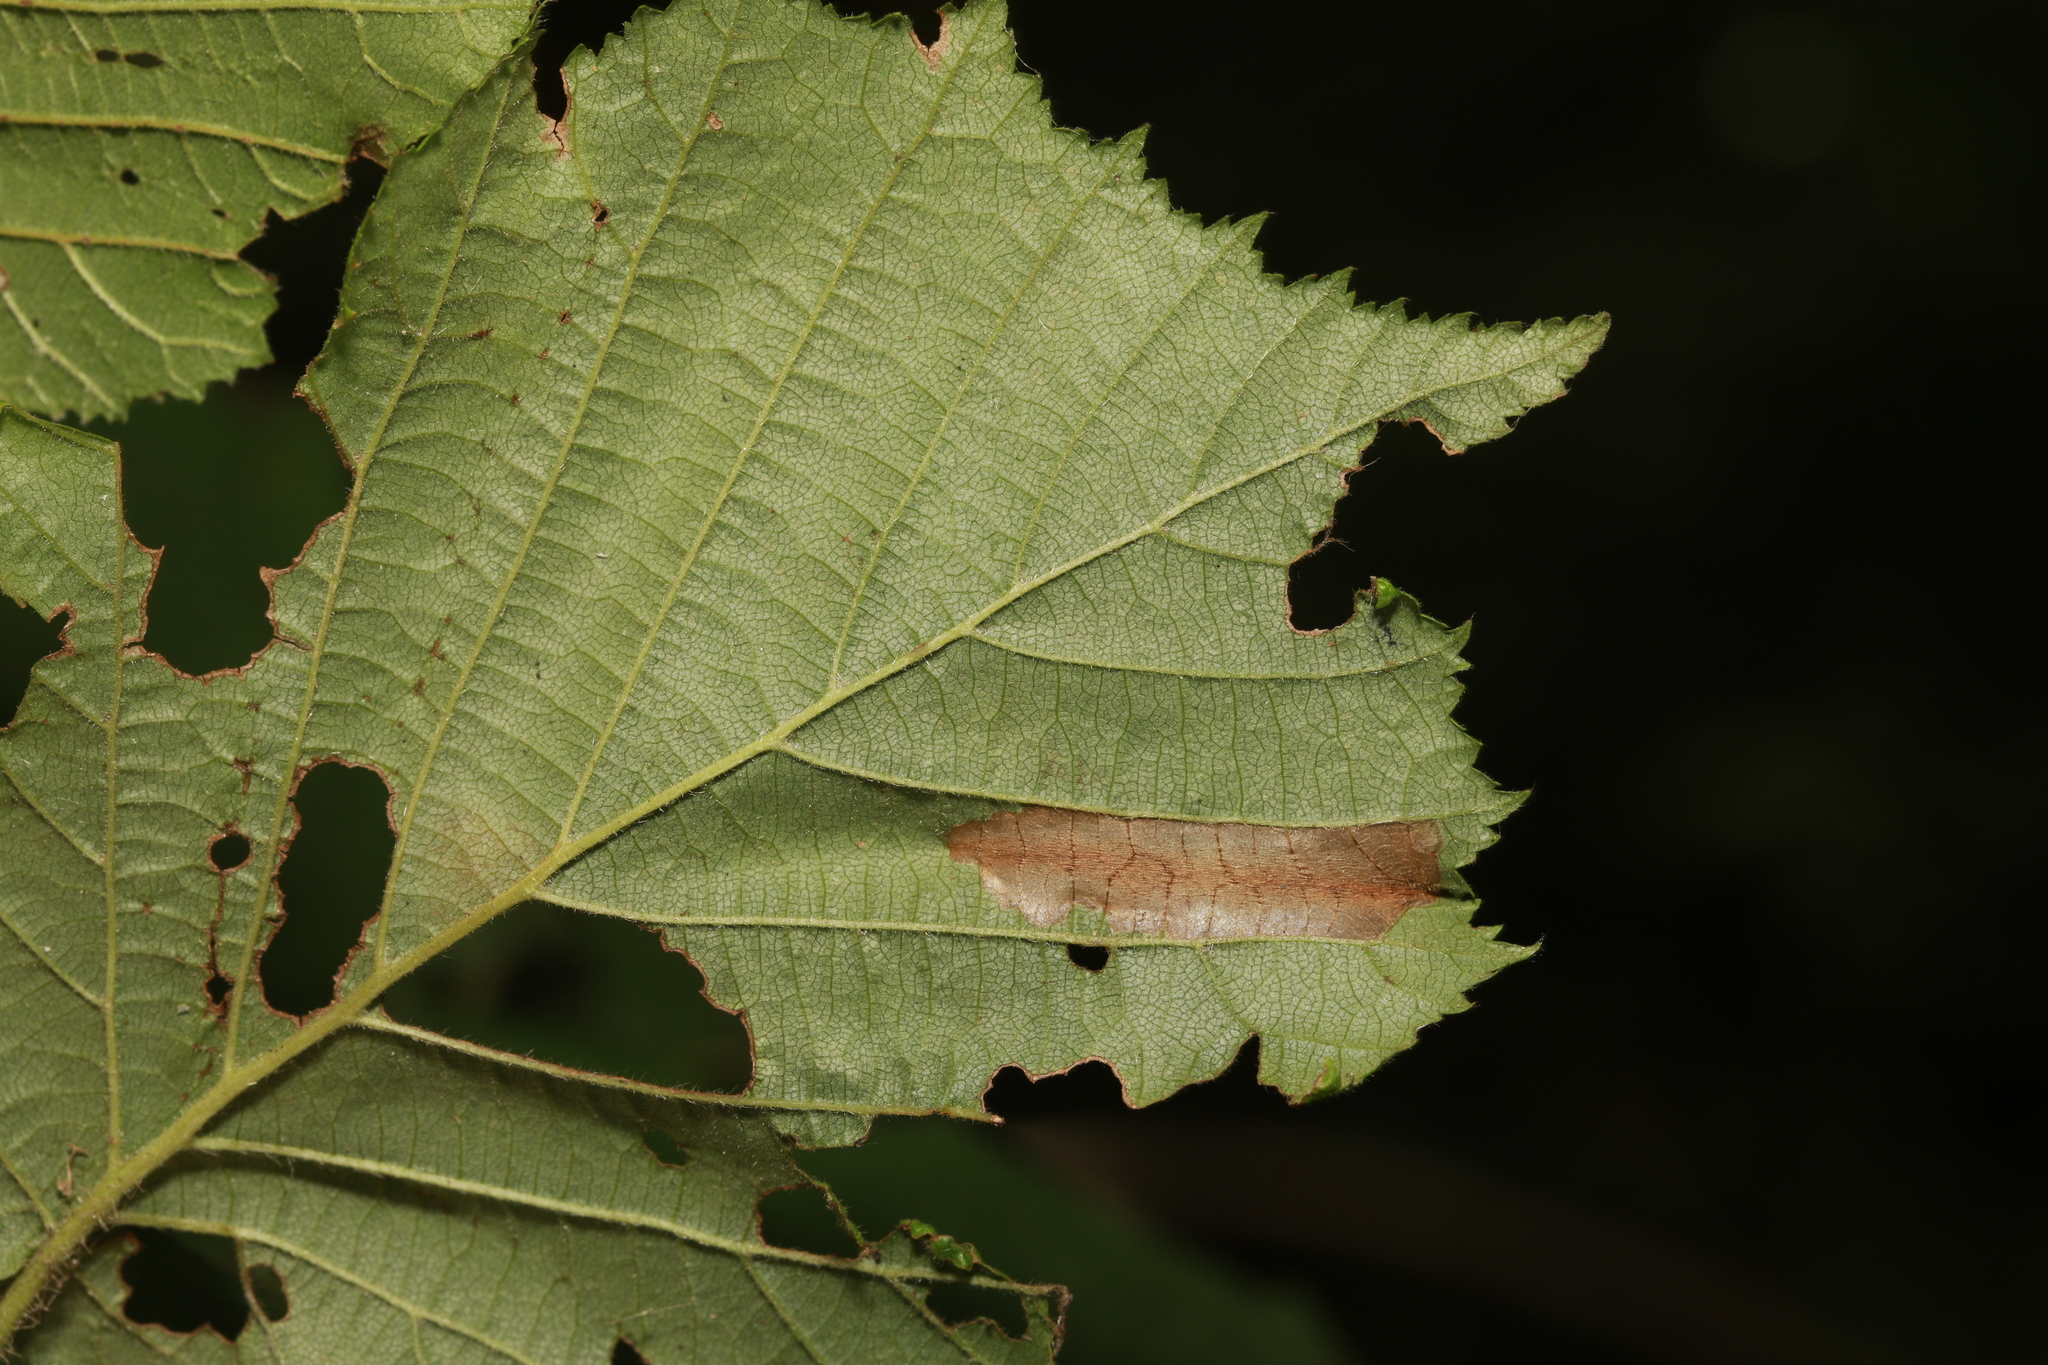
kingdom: Animalia
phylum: Arthropoda
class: Insecta
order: Lepidoptera
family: Gracillariidae
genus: Phyllonorycter
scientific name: Phyllonorycter nicellii
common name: Red hazel midget
